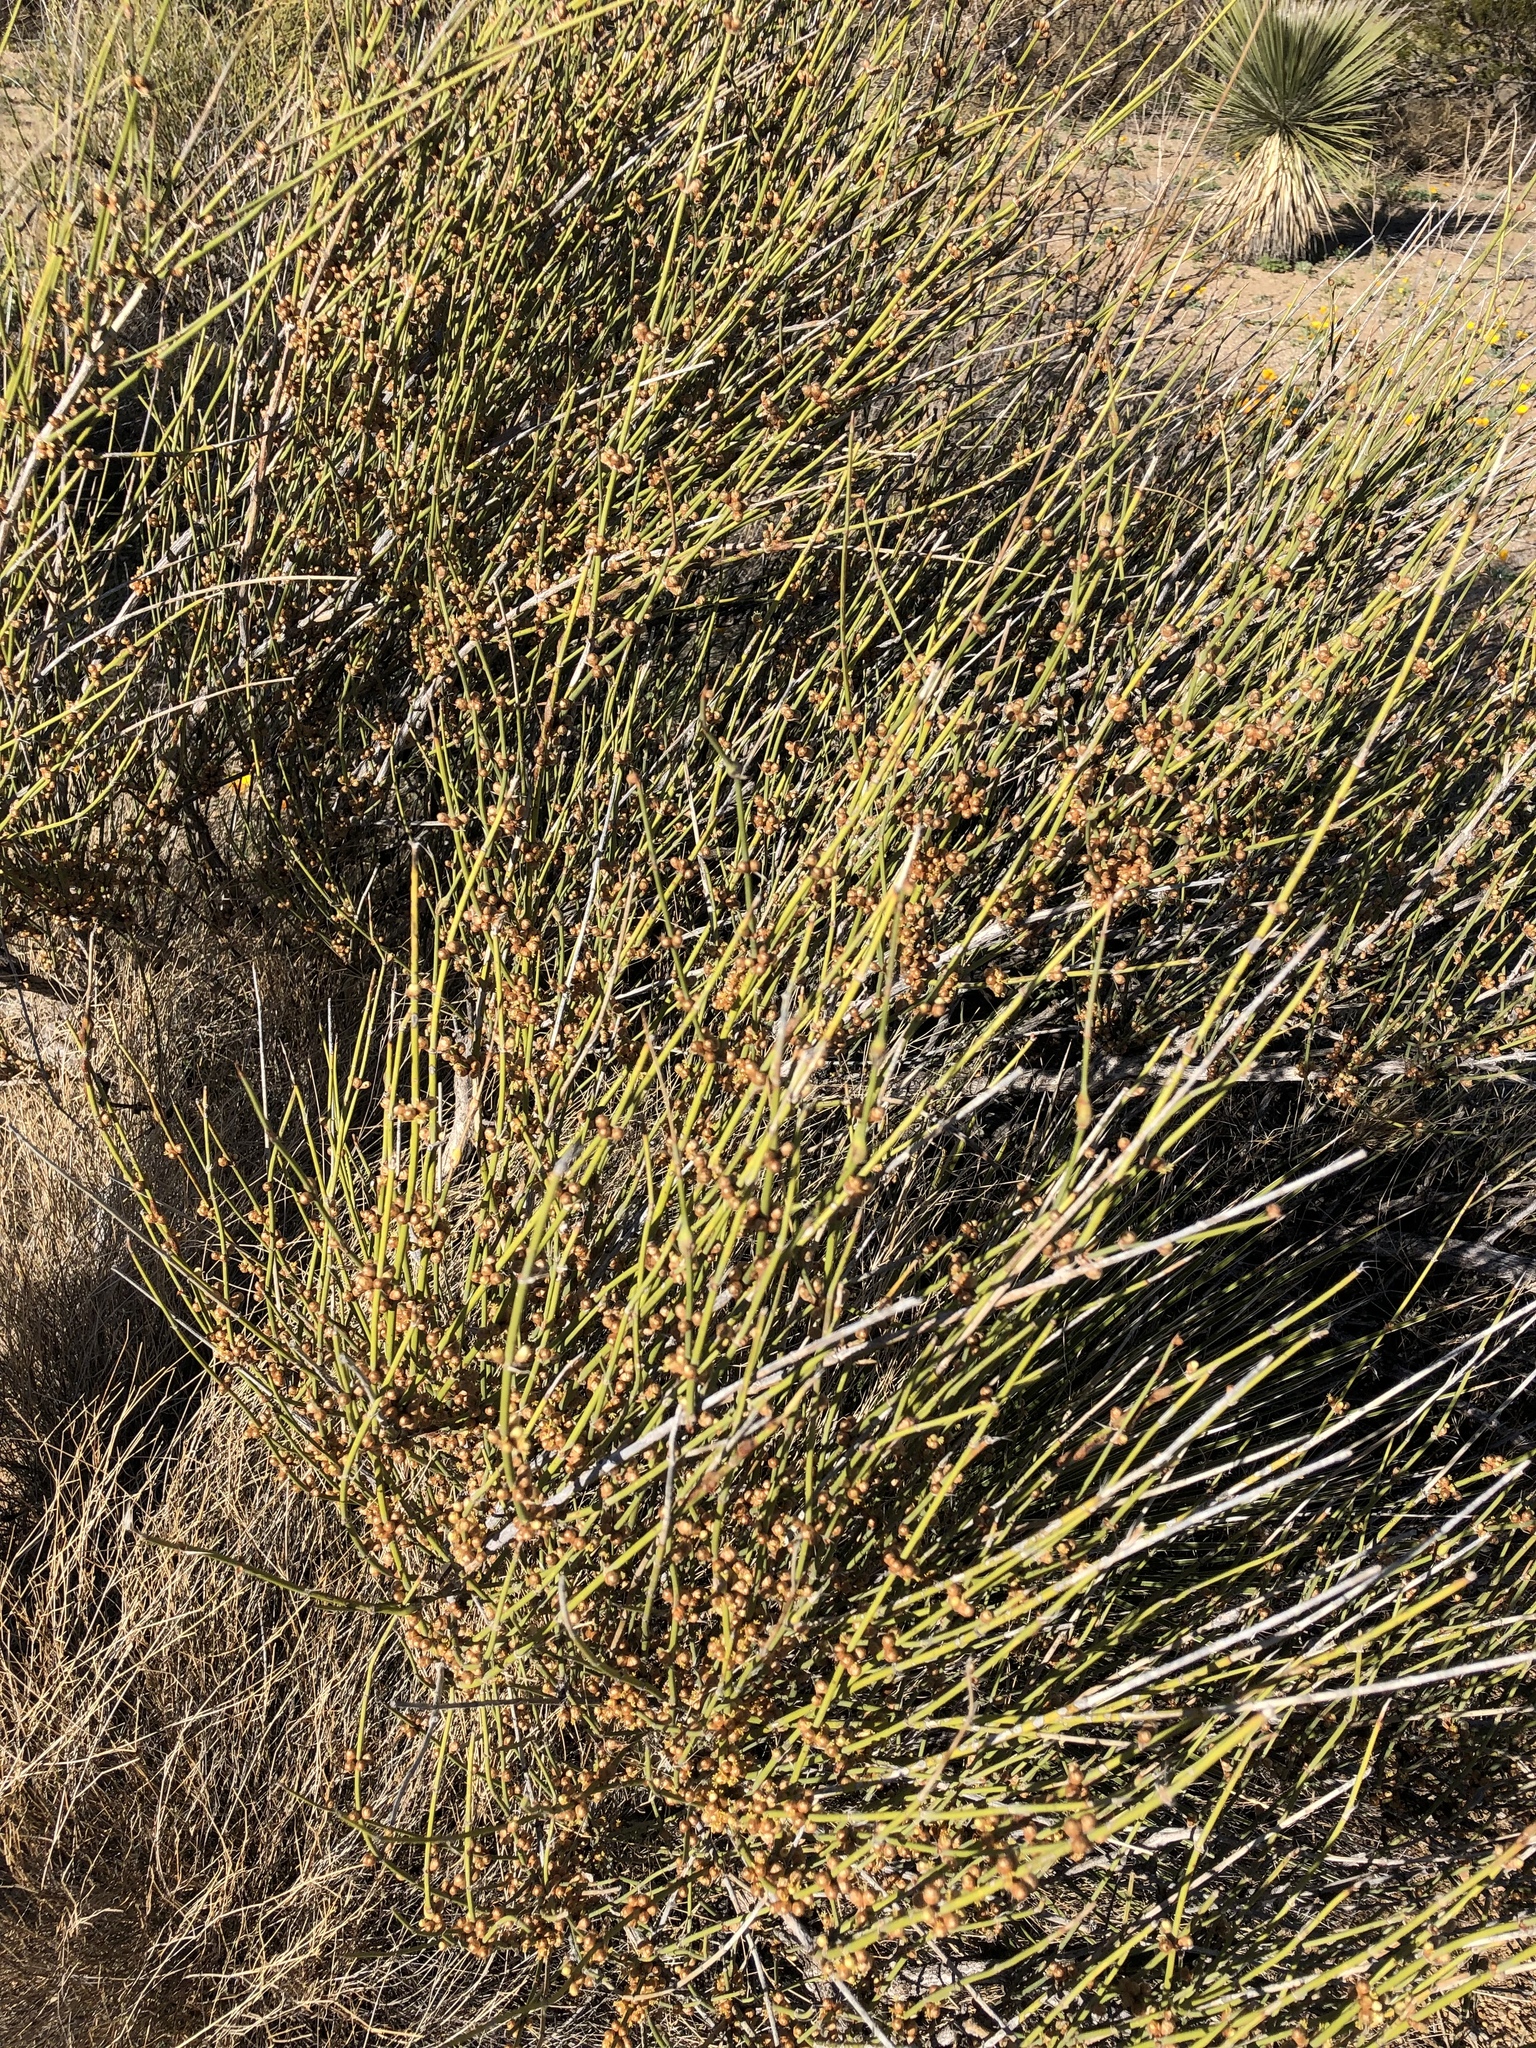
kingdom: Plantae
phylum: Tracheophyta
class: Gnetopsida
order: Ephedrales
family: Ephedraceae
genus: Ephedra
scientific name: Ephedra trifurca
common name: Mexican-tea
